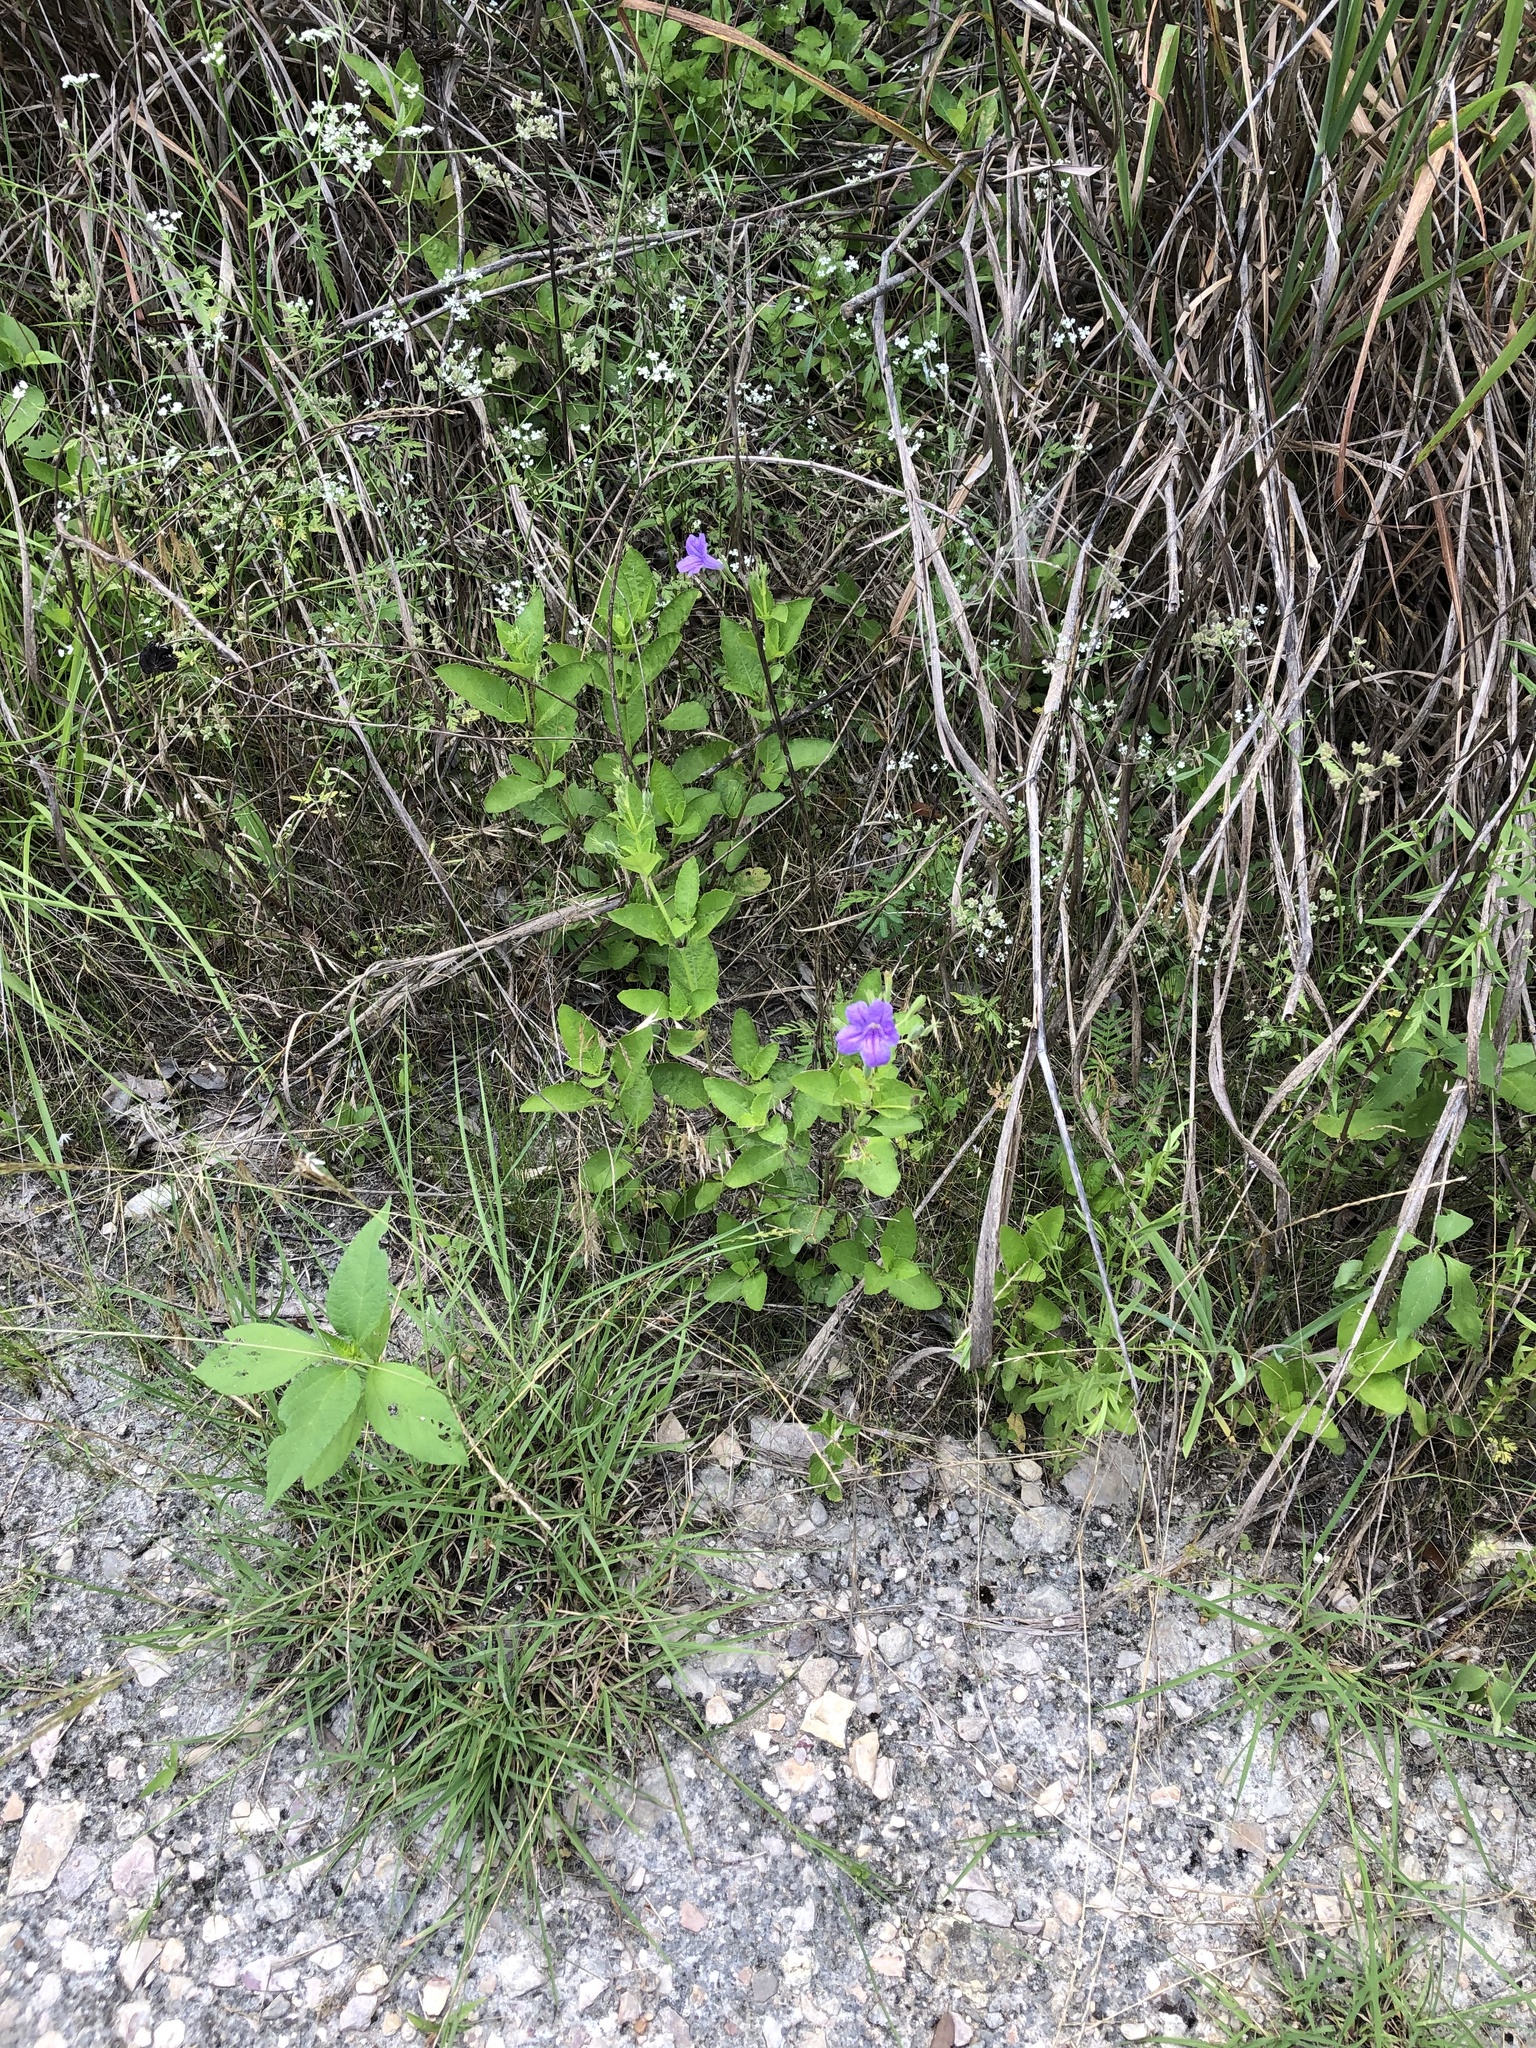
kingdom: Plantae
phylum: Tracheophyta
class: Magnoliopsida
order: Lamiales
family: Acanthaceae
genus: Ruellia
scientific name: Ruellia ciliatiflora
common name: Hairyflower wild petunia
